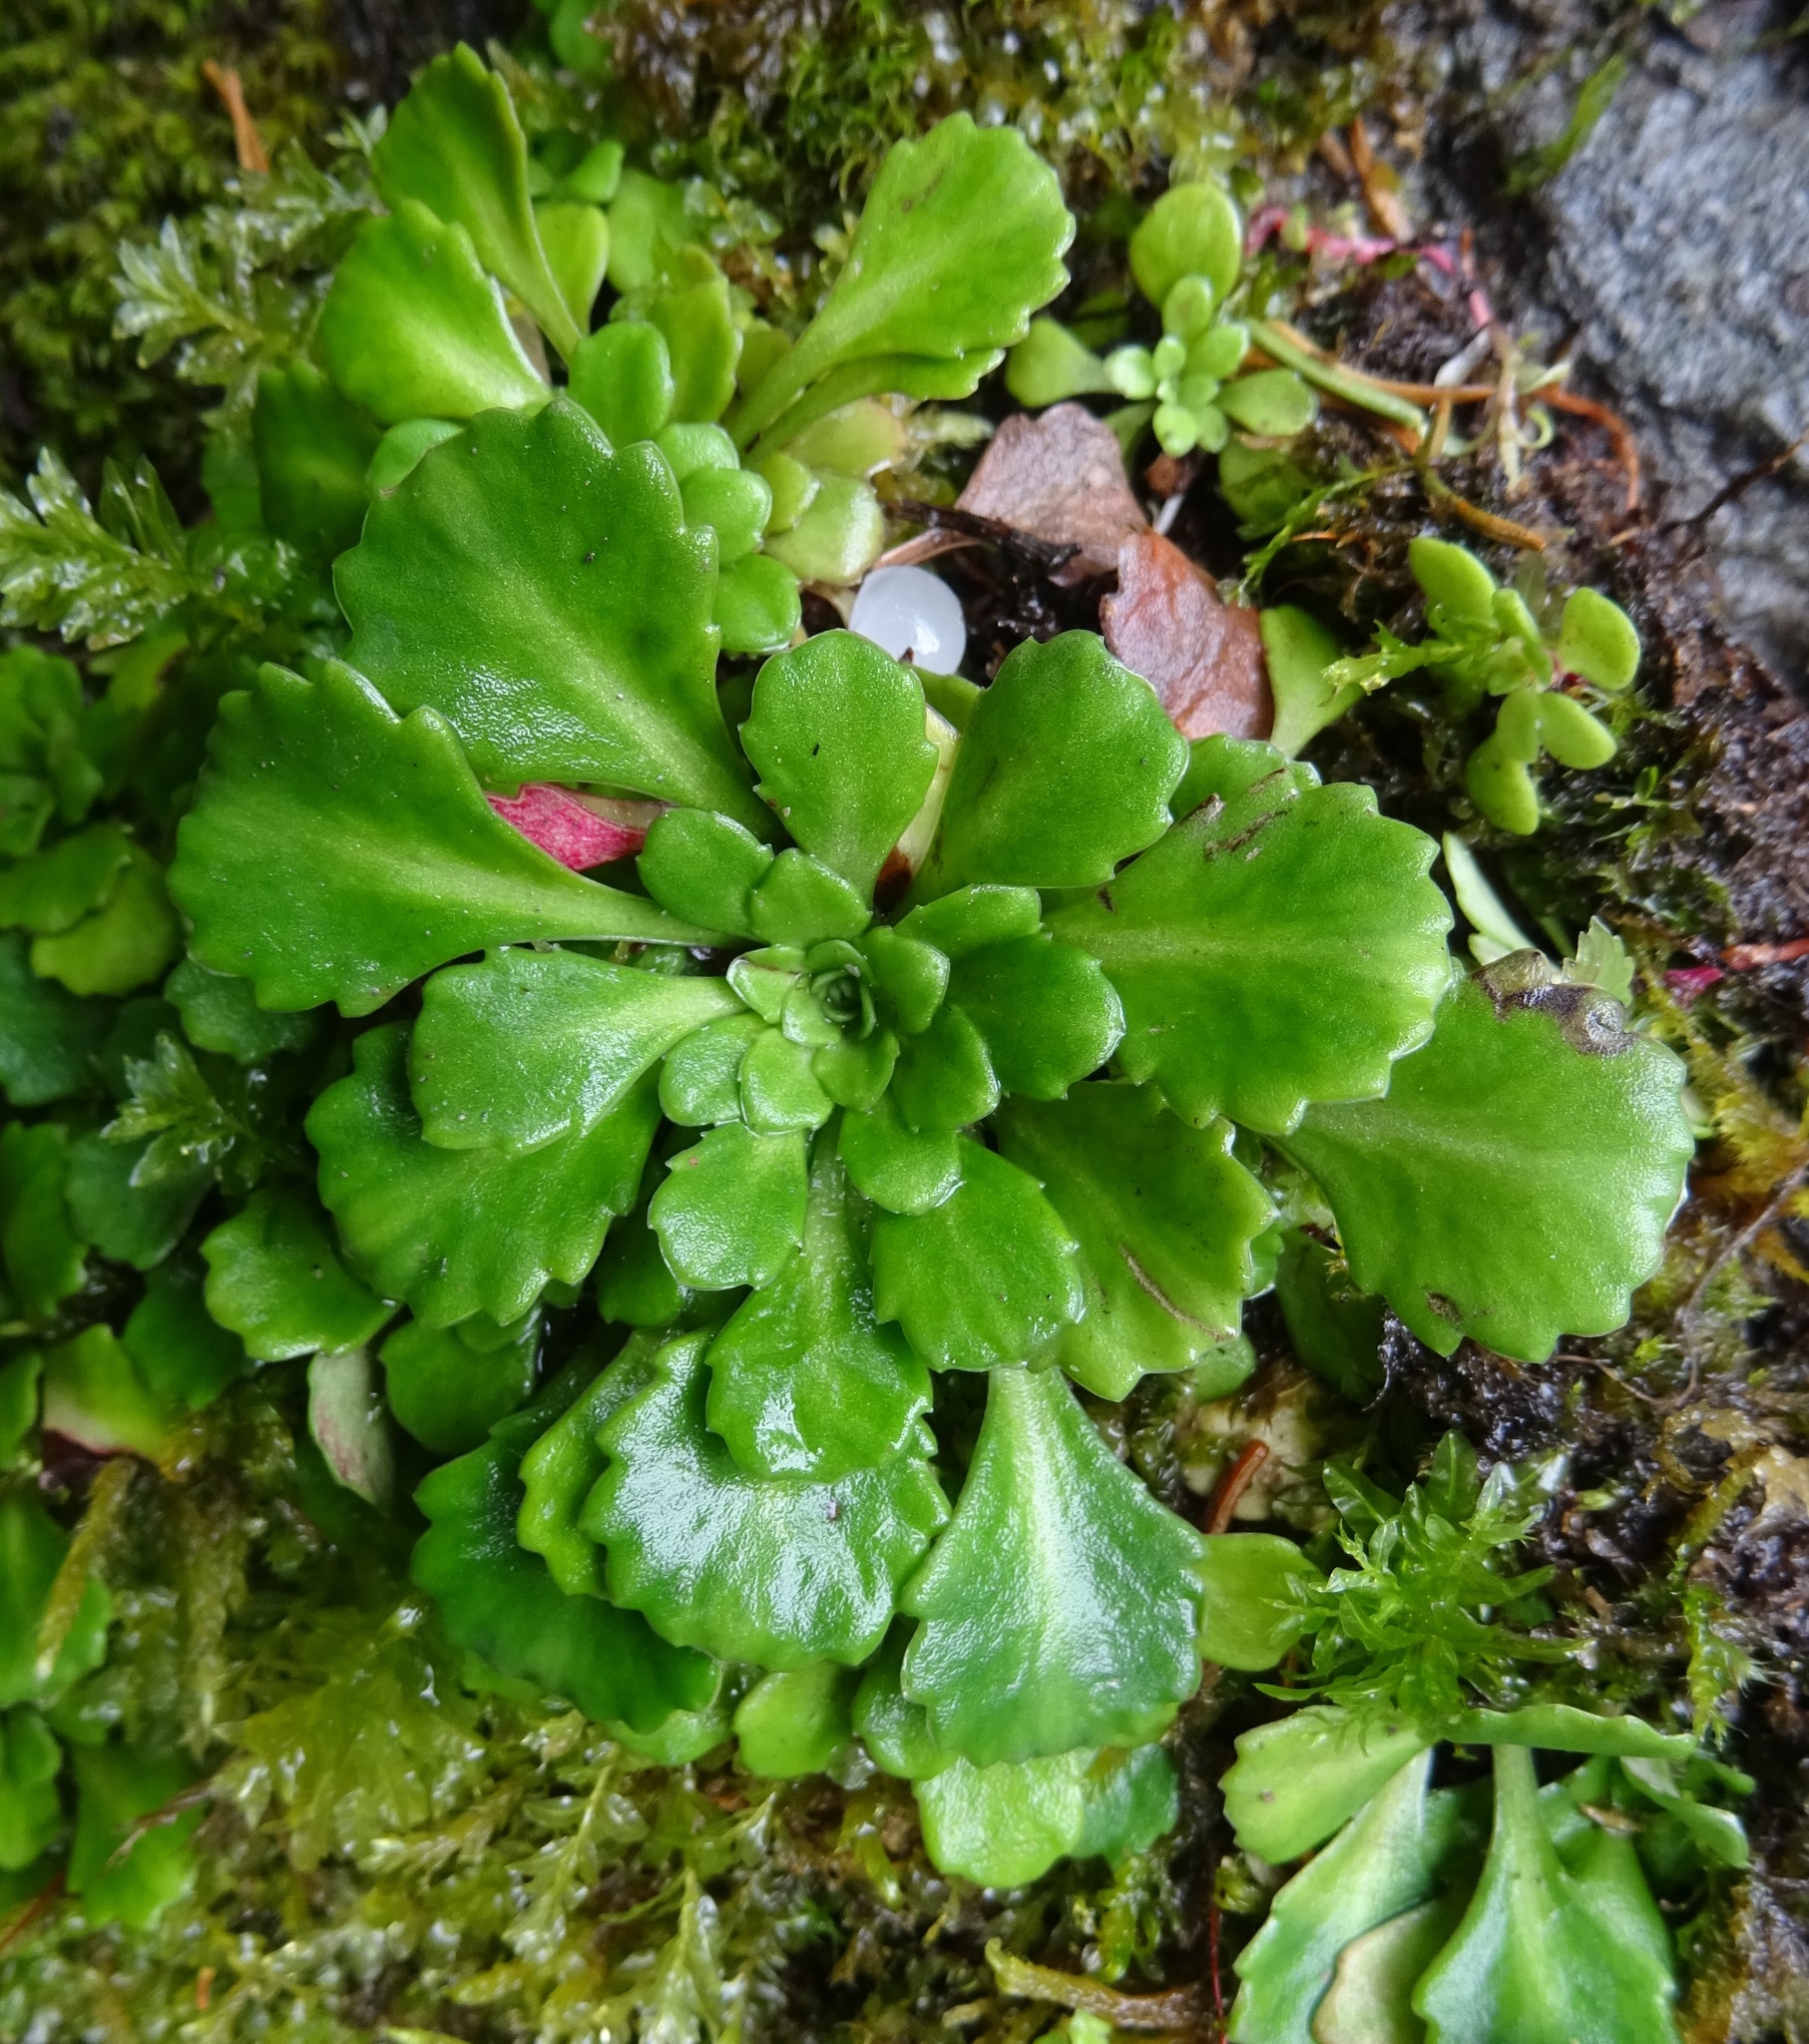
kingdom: Plantae
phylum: Tracheophyta
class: Magnoliopsida
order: Saxifragales
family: Saxifragaceae
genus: Saxifraga
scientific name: Saxifraga cuneifolia
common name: Lesser londonpride
